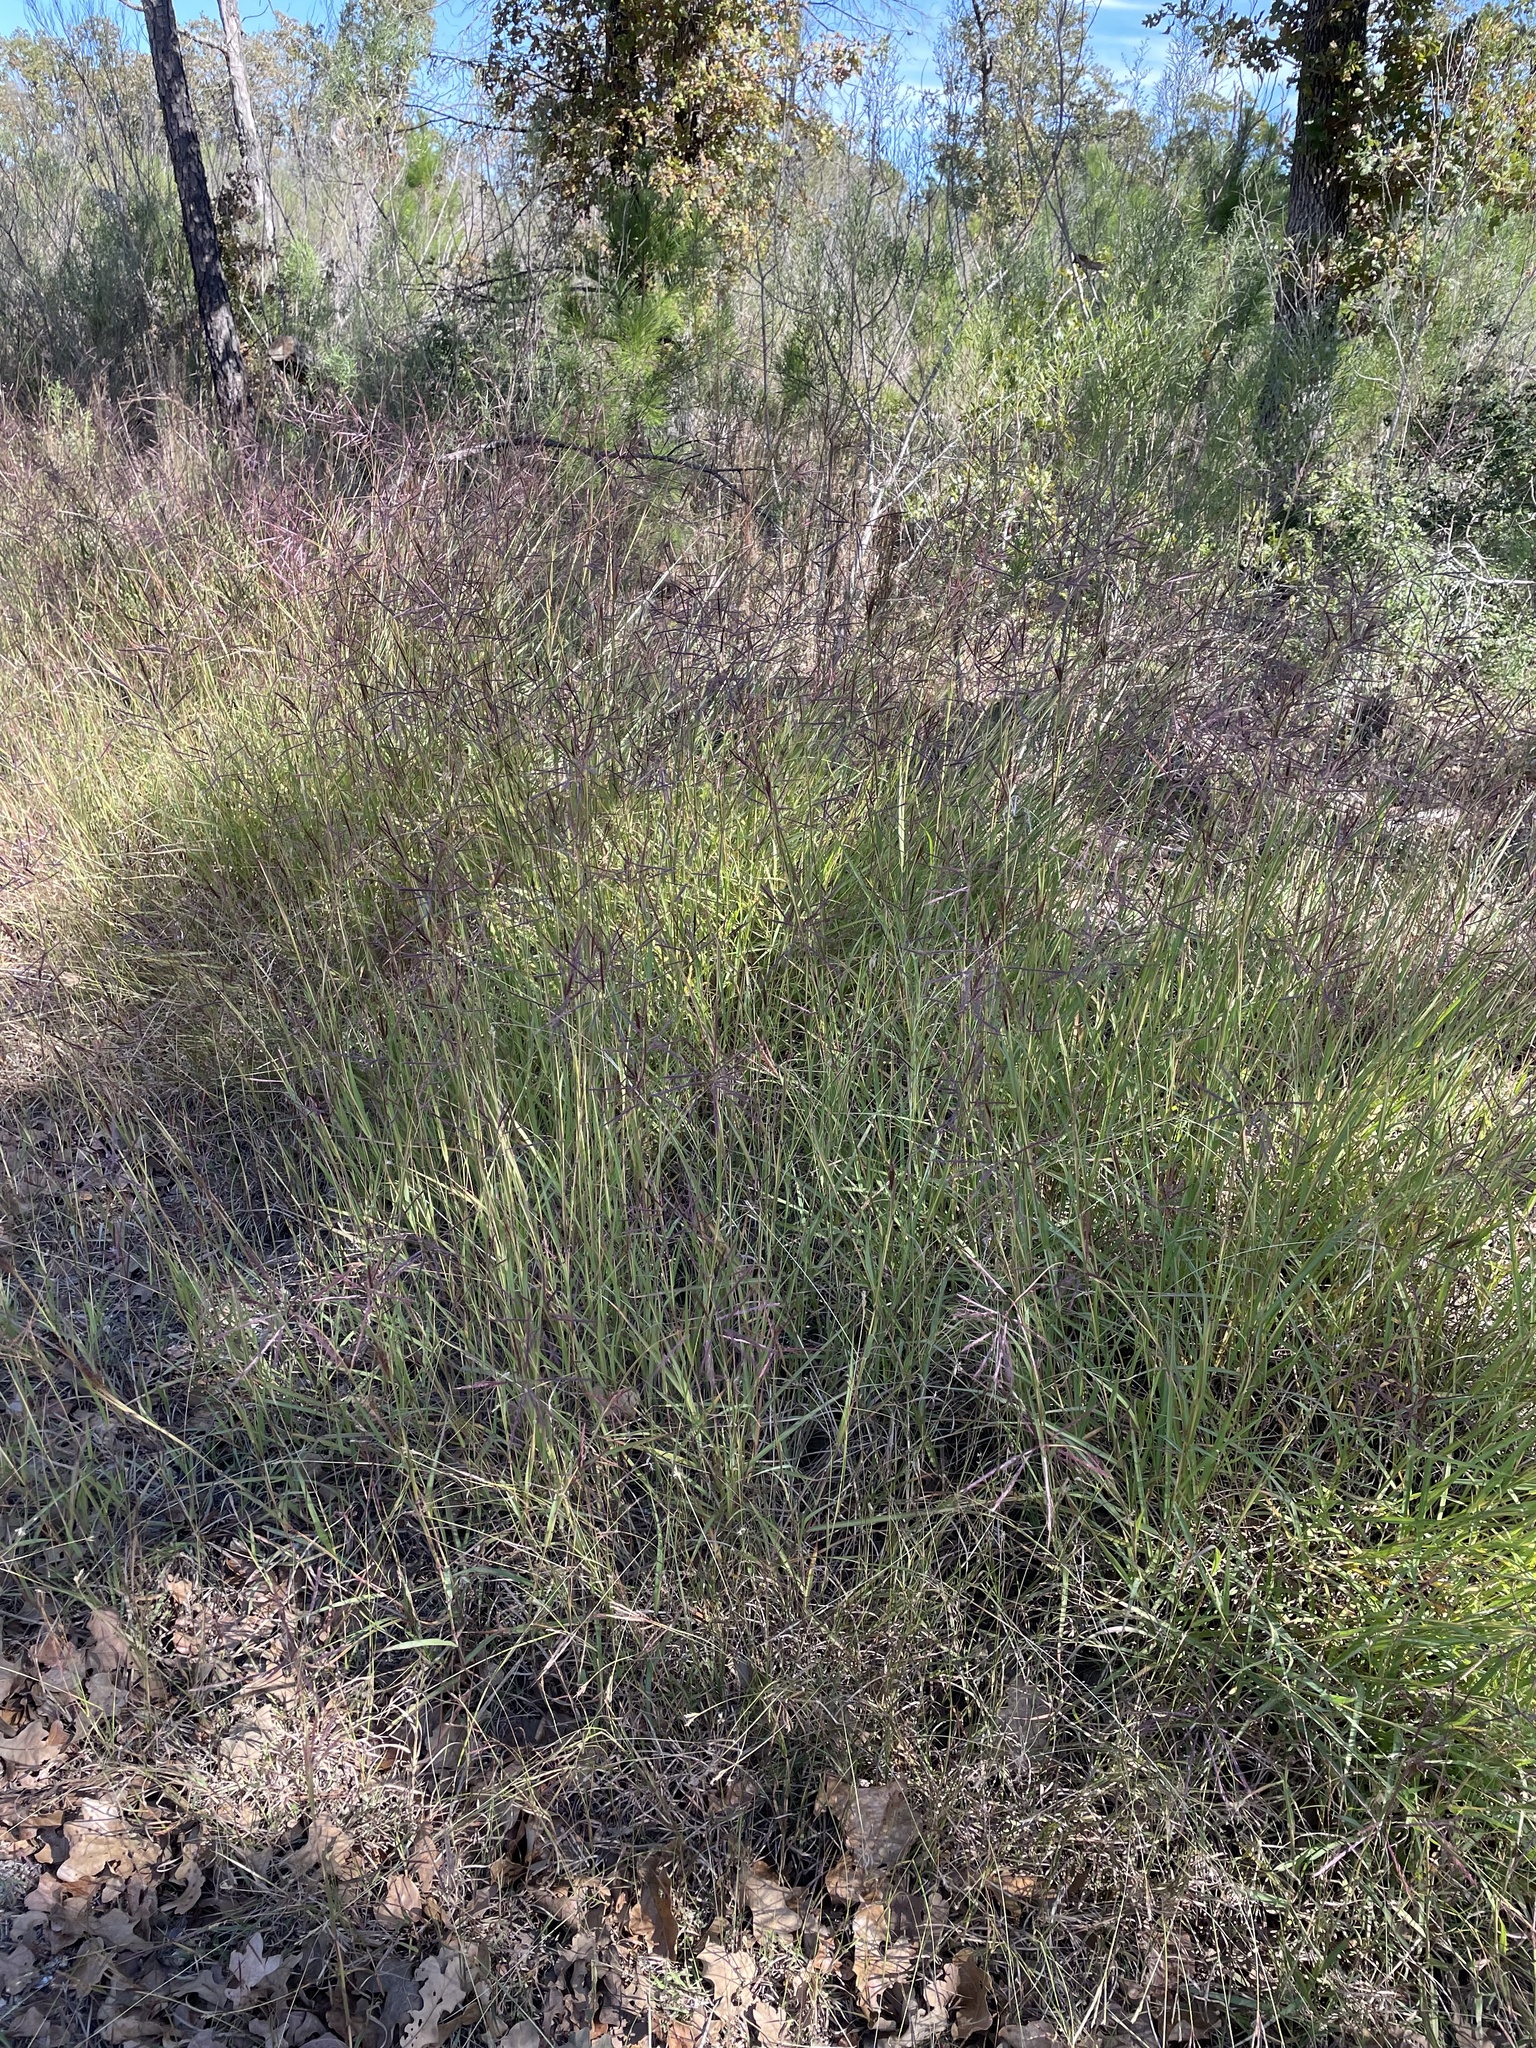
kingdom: Plantae
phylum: Tracheophyta
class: Liliopsida
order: Poales
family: Poaceae
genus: Bothriochloa
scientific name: Bothriochloa bladhii
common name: Caucasian bluestem
